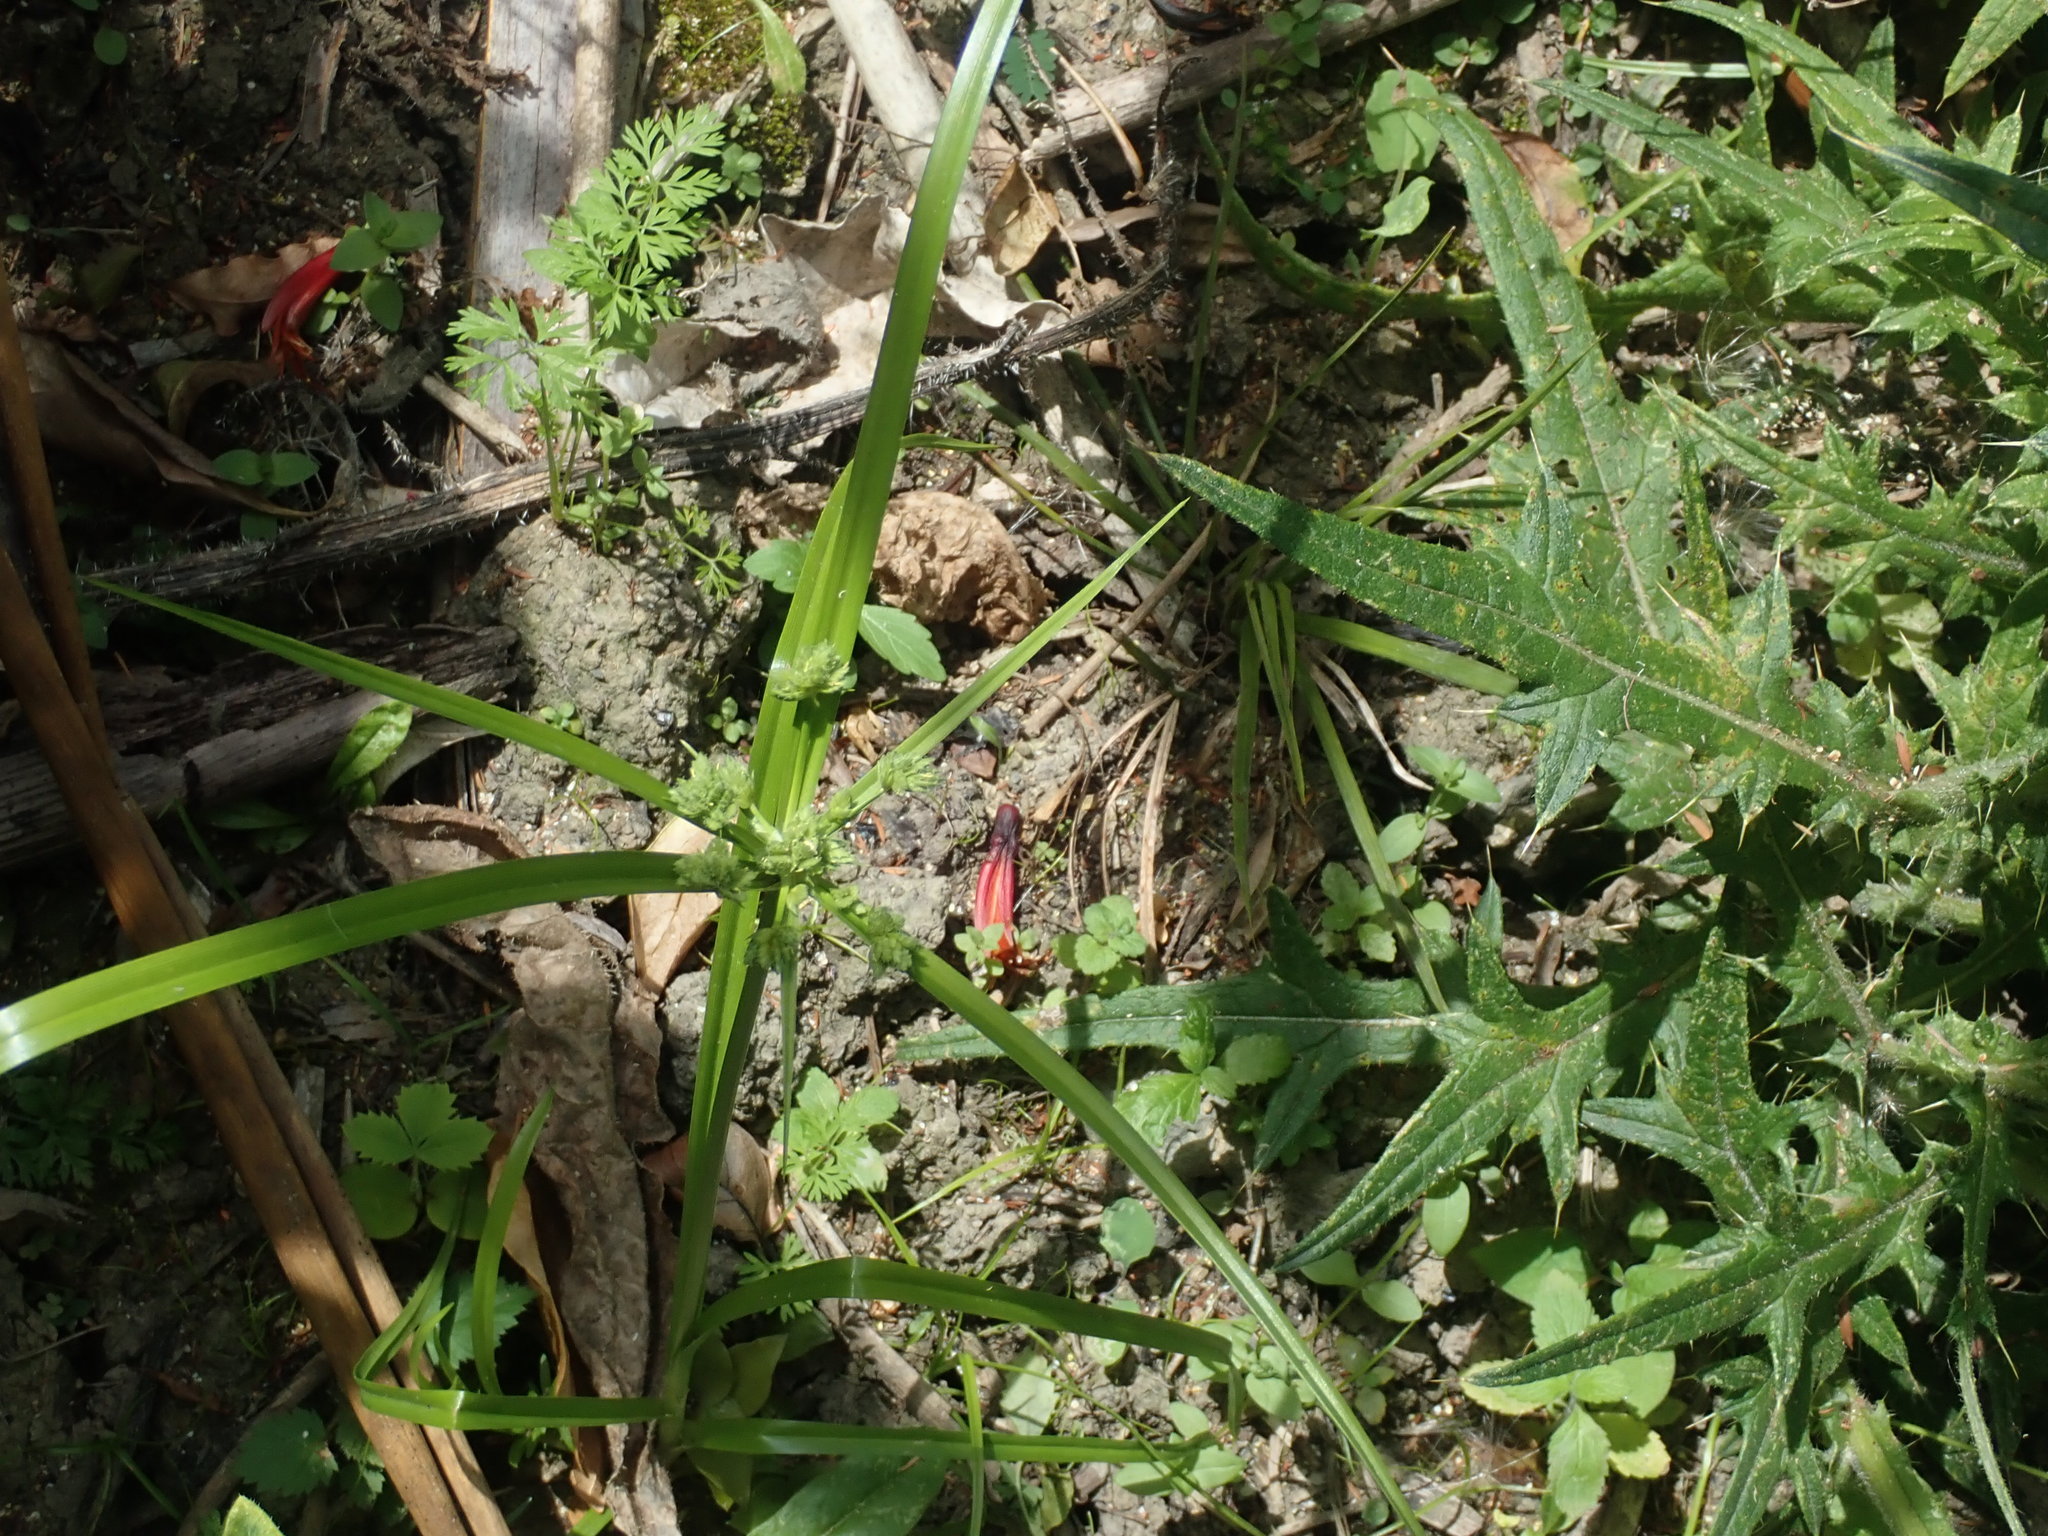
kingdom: Plantae
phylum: Tracheophyta
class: Magnoliopsida
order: Geraniales
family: Melianthaceae
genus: Melianthus
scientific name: Melianthus major
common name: Honey-flower
